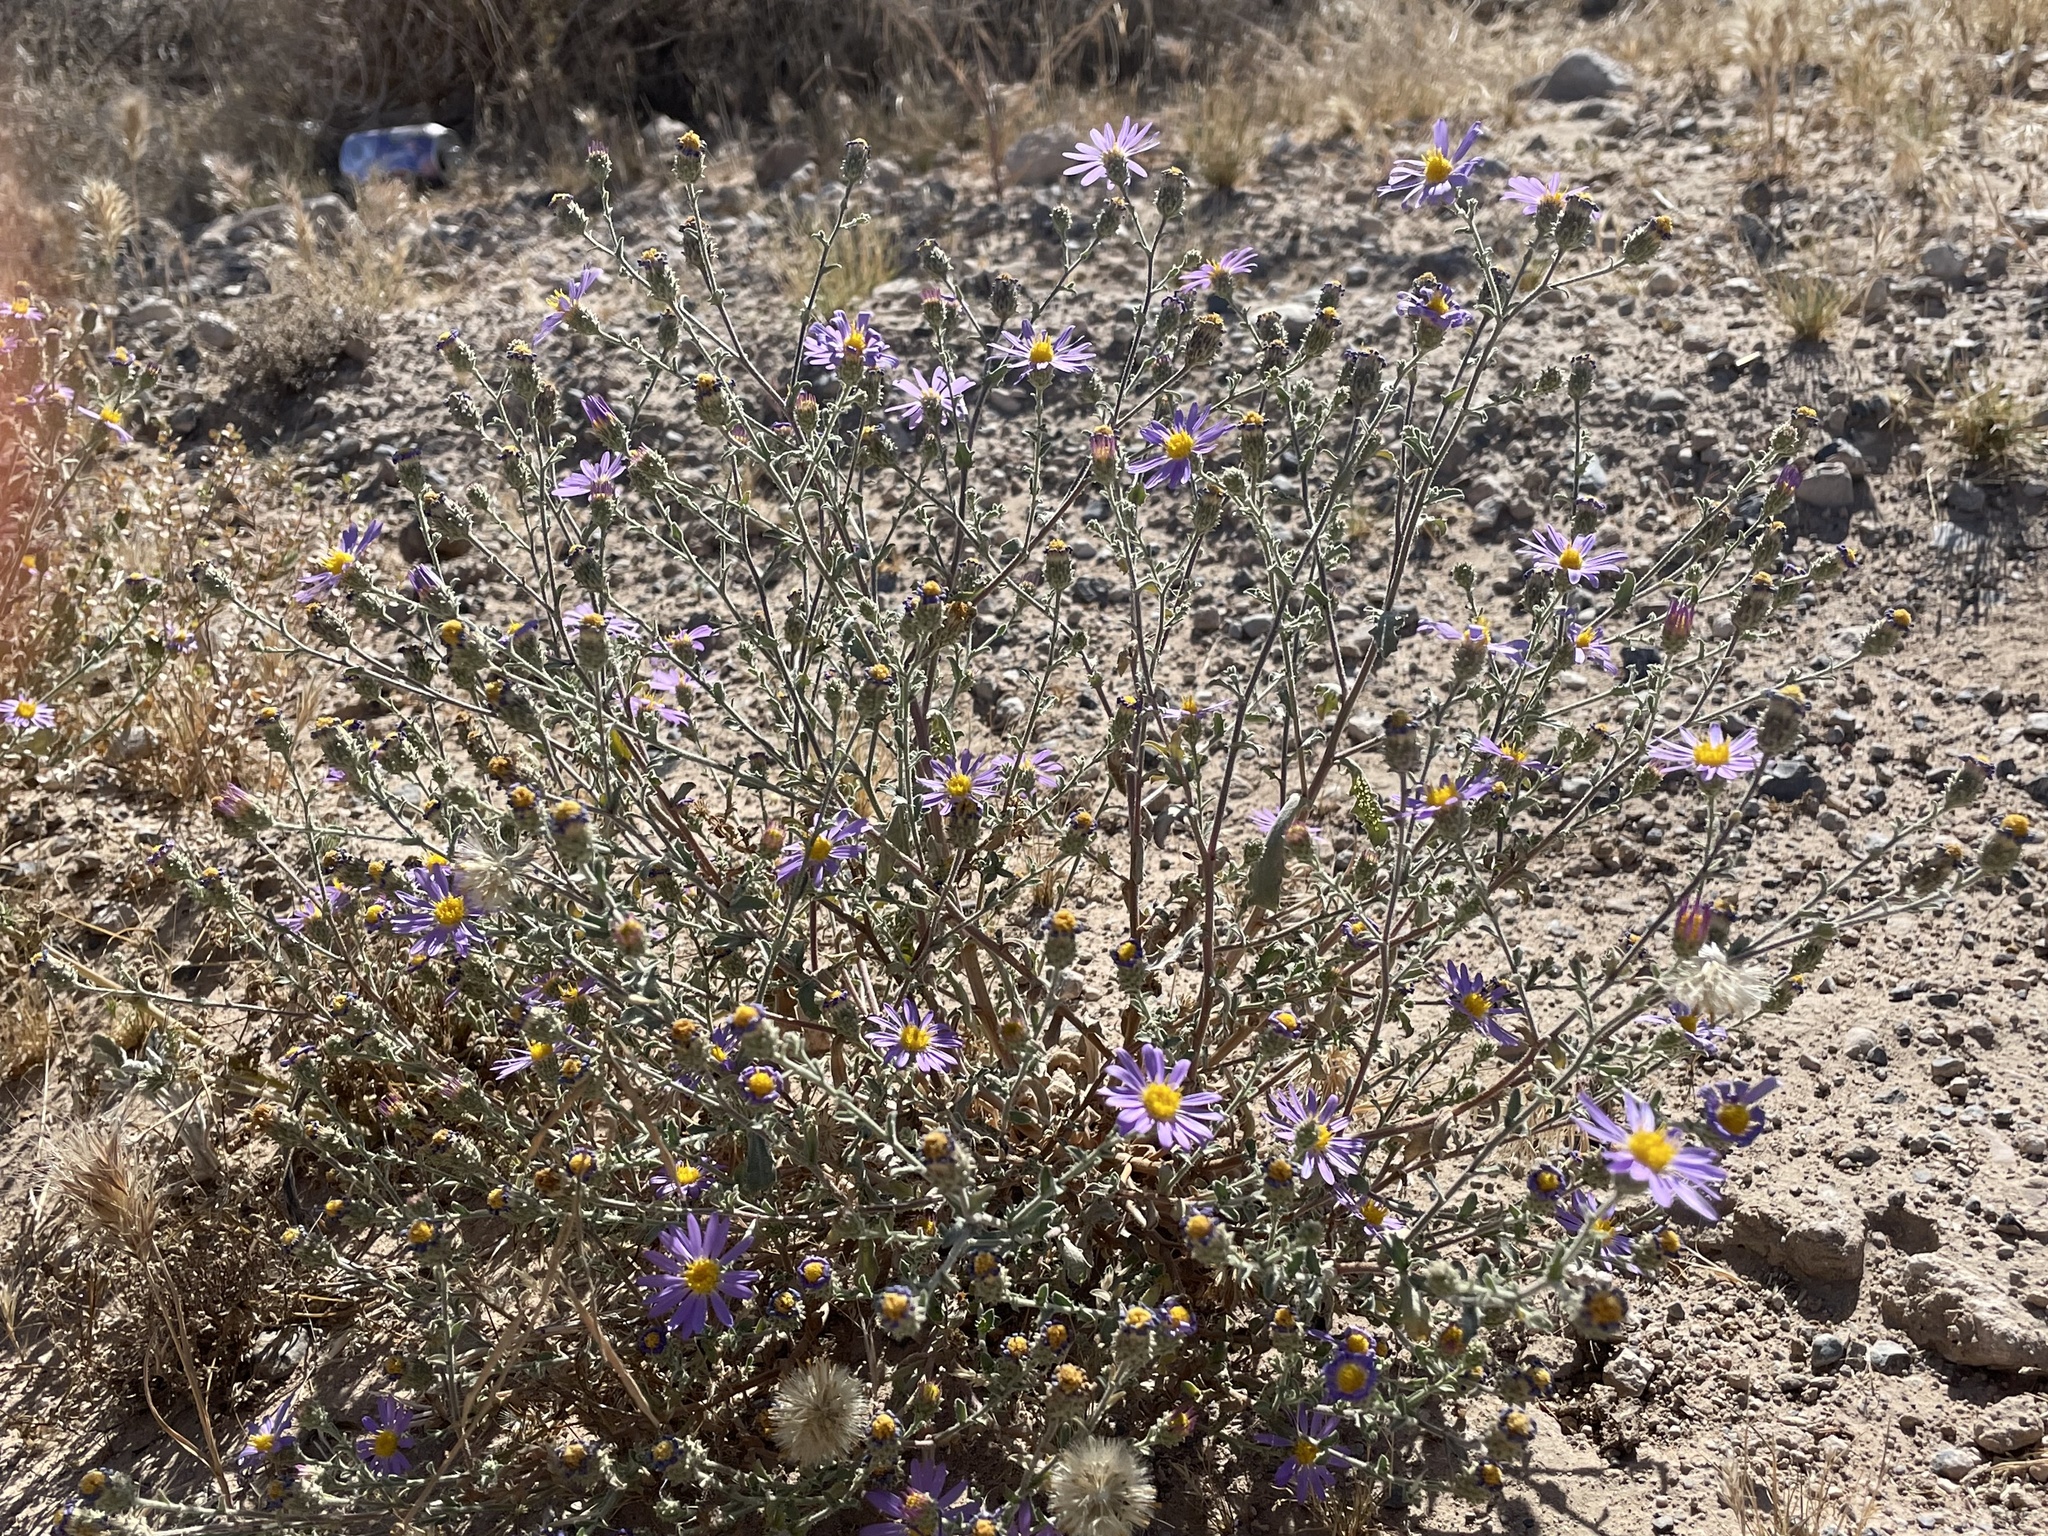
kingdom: Plantae
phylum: Tracheophyta
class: Magnoliopsida
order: Asterales
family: Asteraceae
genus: Dieteria
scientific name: Dieteria canescens
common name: Hoary-aster
